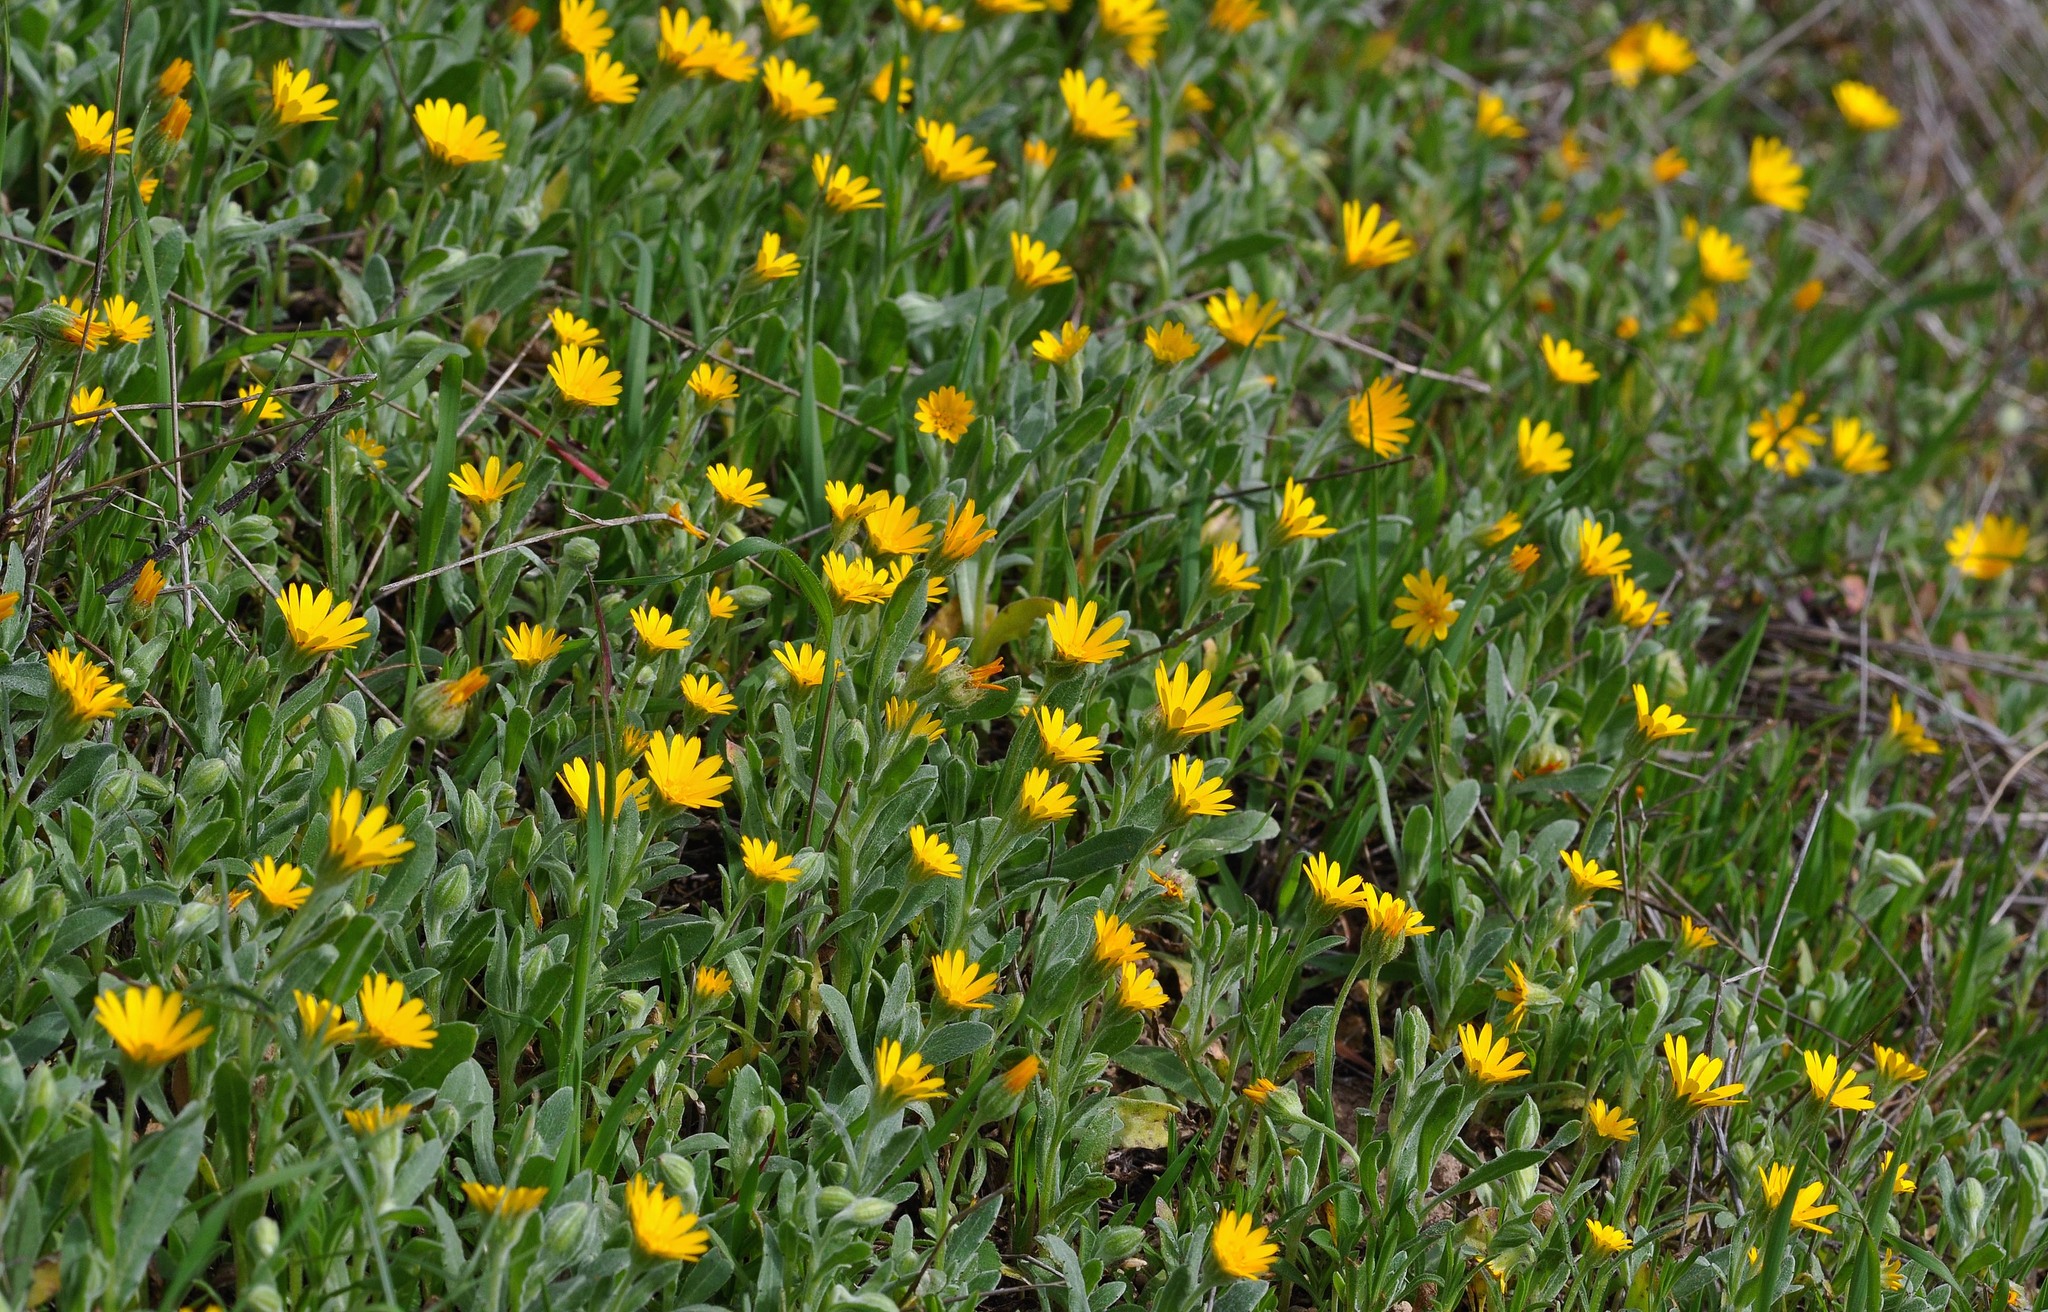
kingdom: Plantae
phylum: Tracheophyta
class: Magnoliopsida
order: Asterales
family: Asteraceae
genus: Calendula
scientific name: Calendula arvensis
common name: Field marigold
